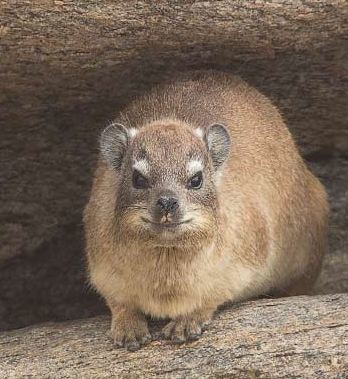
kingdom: Animalia
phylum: Chordata
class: Mammalia
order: Hyracoidea
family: Procaviidae
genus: Procavia
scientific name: Procavia capensis
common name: Rock hyrax
